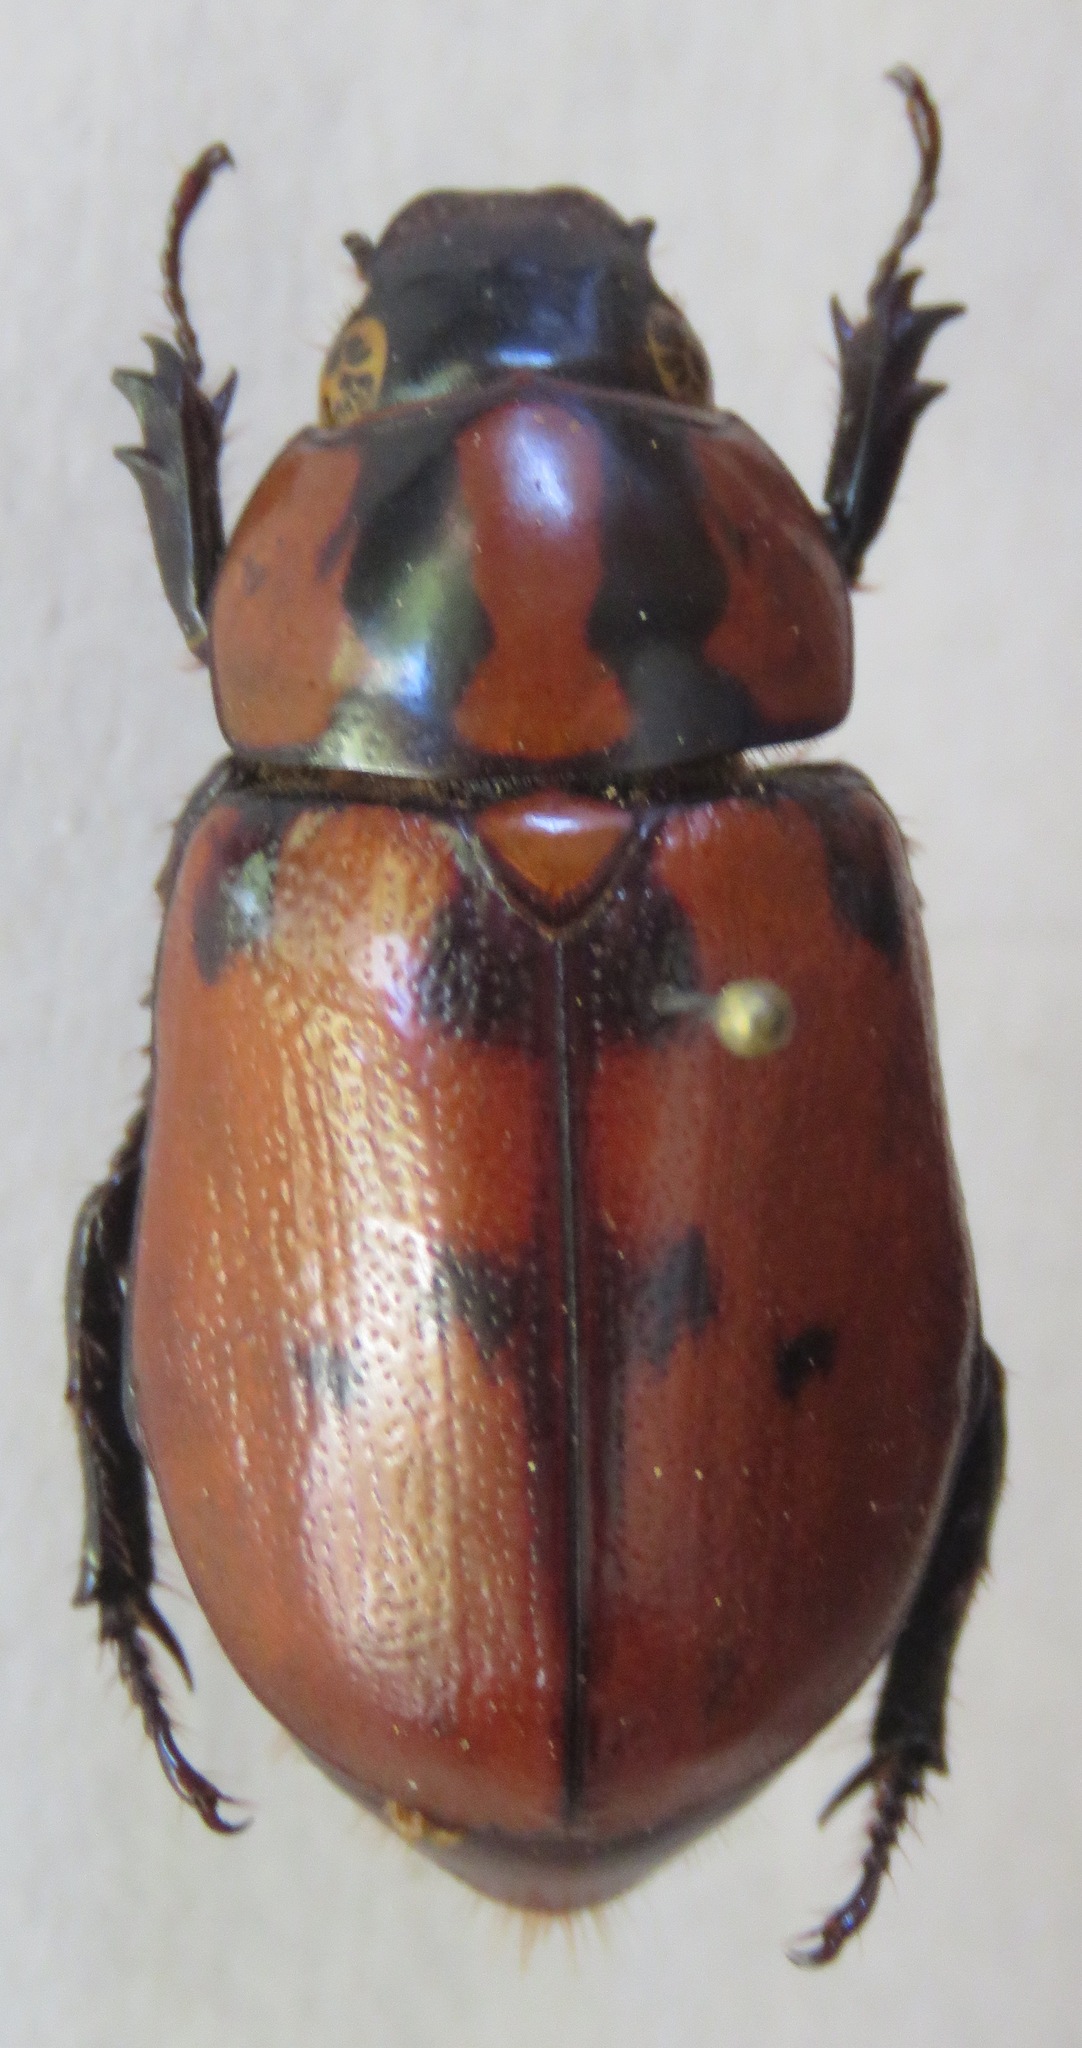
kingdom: Animalia
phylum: Arthropoda
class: Insecta
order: Coleoptera
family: Scarabaeidae
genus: Cyclocephala
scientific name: Cyclocephala mafaffa
